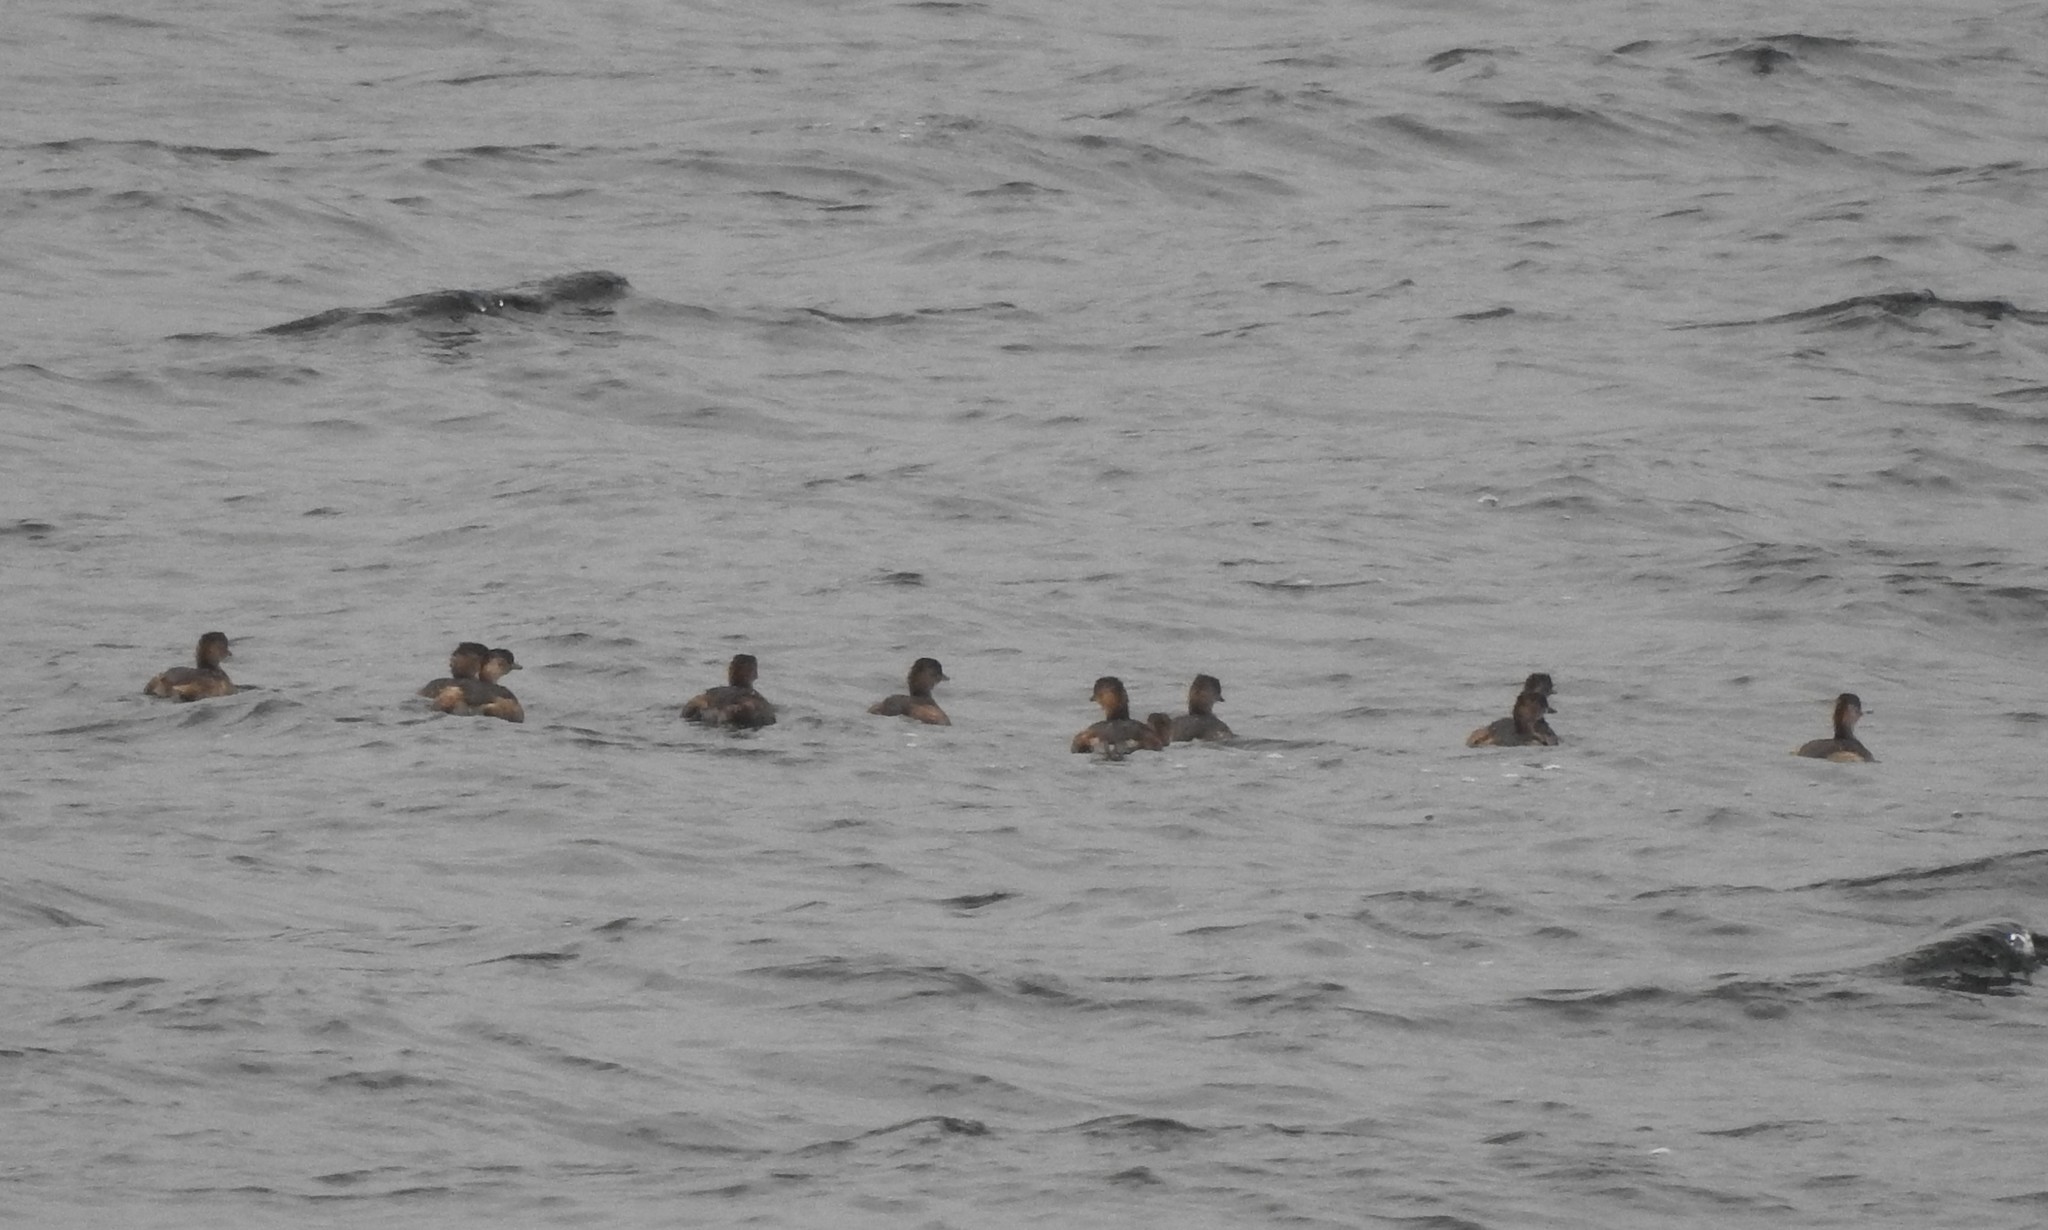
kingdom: Animalia
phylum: Chordata
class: Aves
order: Podicipediformes
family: Podicipedidae
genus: Tachybaptus
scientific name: Tachybaptus ruficollis
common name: Little grebe
